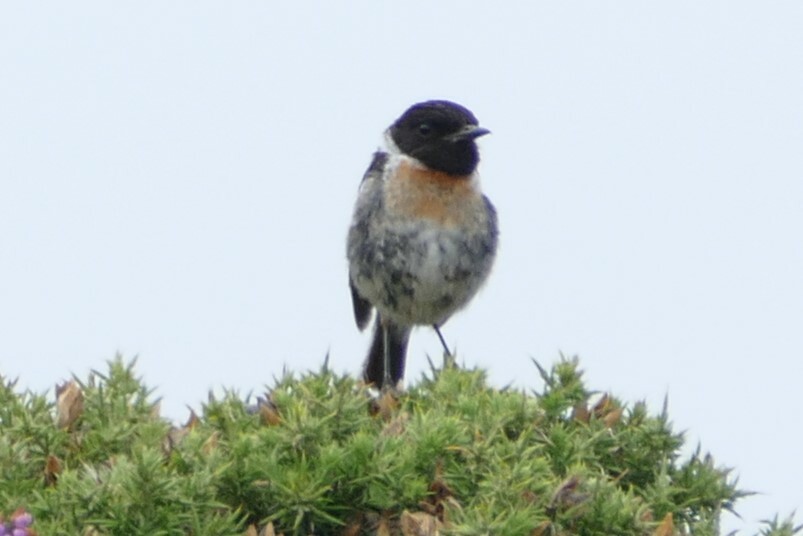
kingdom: Animalia
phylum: Chordata
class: Aves
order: Passeriformes
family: Muscicapidae
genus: Saxicola
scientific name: Saxicola rubicola
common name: European stonechat
